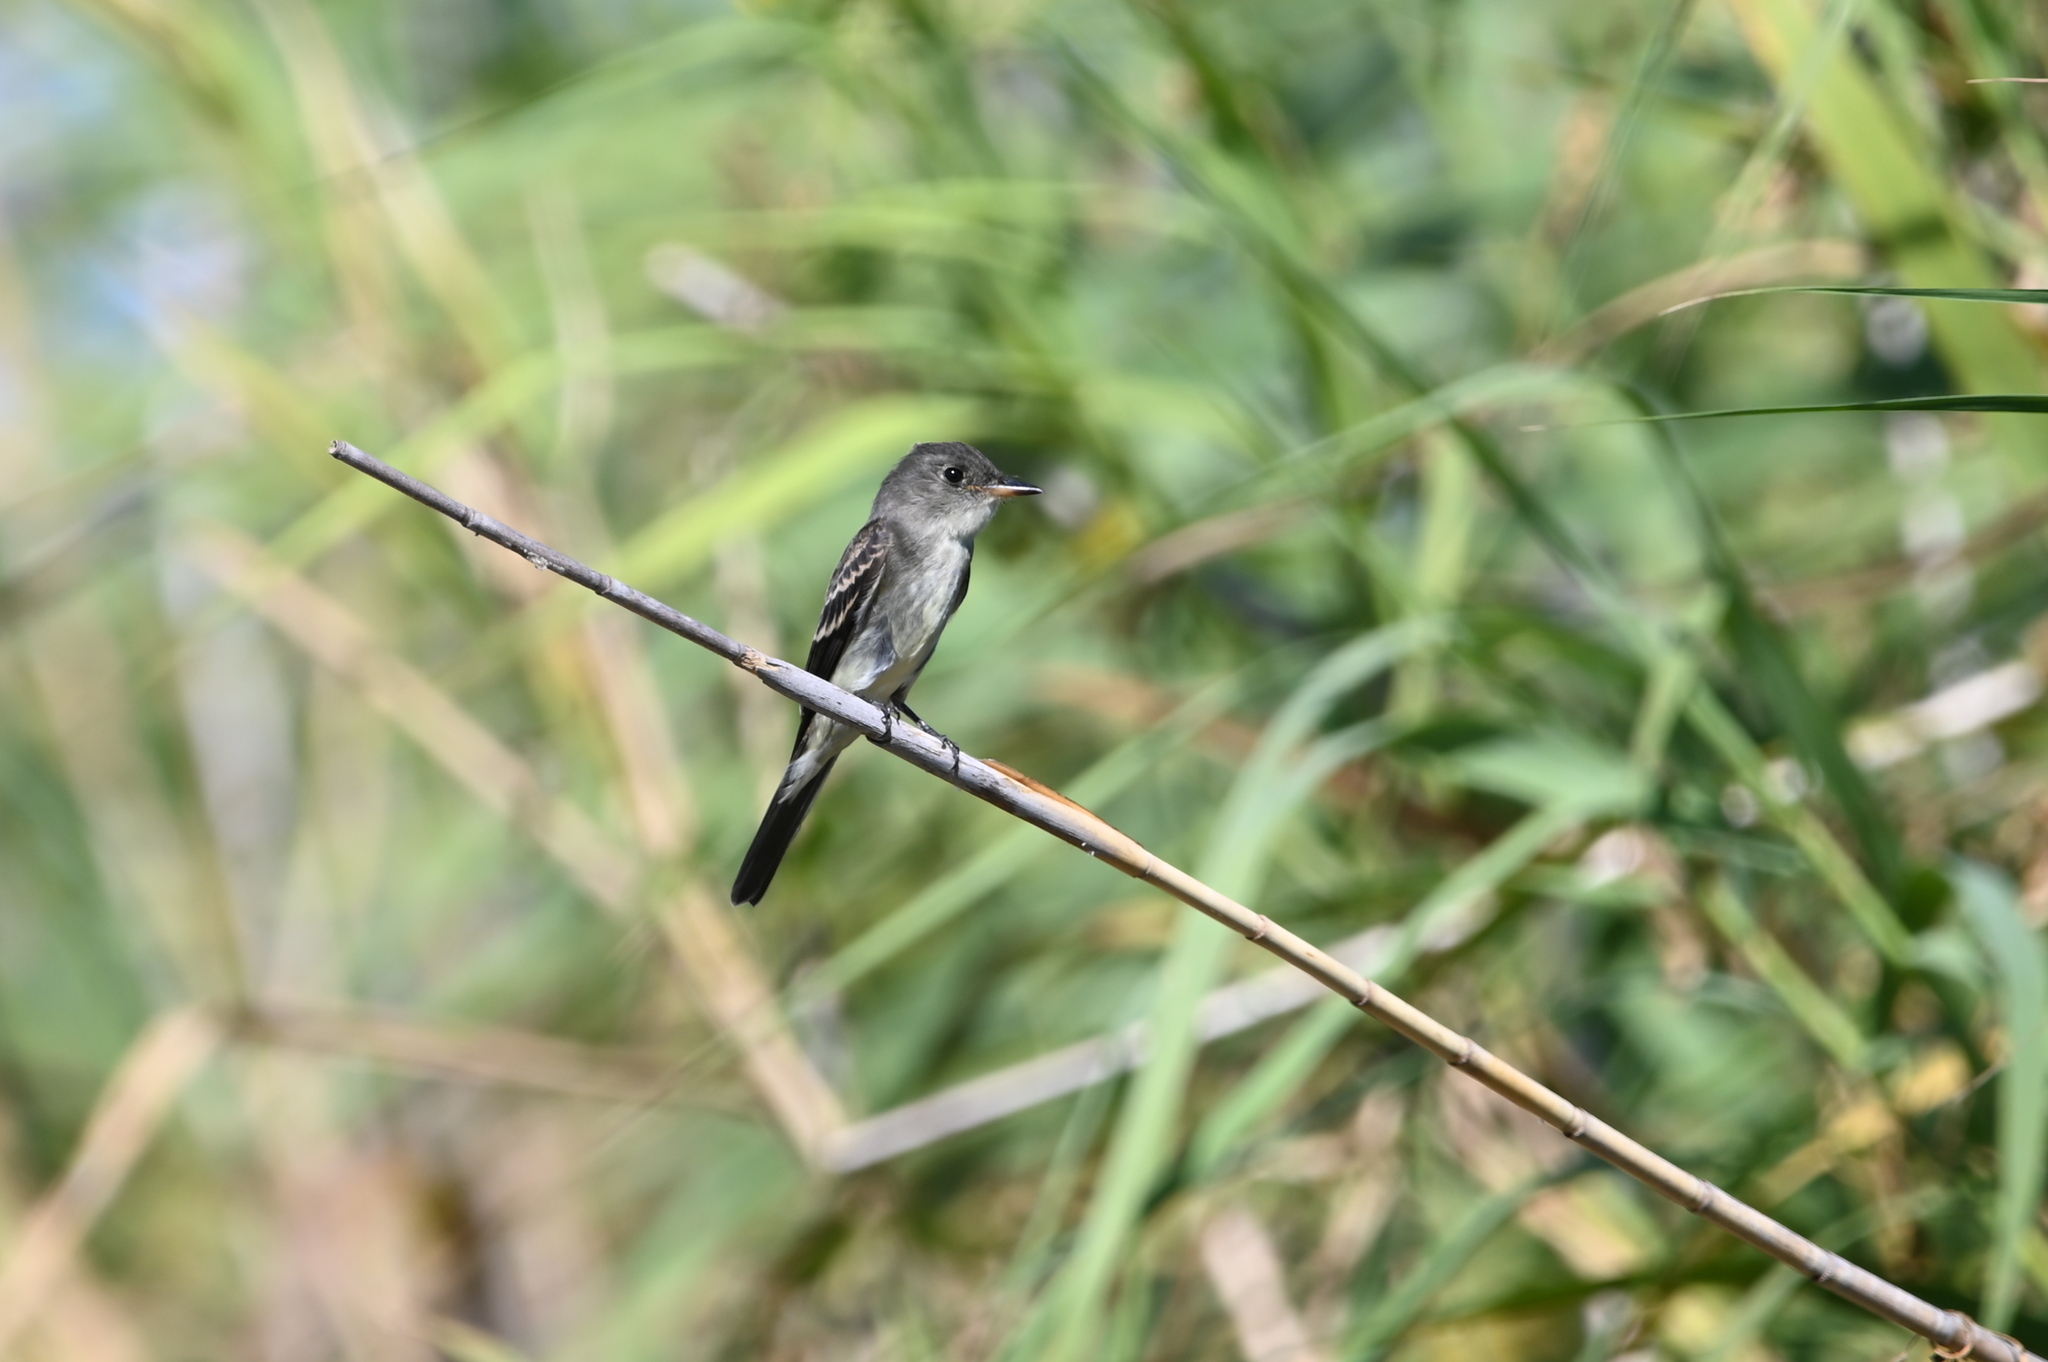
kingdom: Animalia
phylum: Chordata
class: Aves
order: Passeriformes
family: Tyrannidae
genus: Contopus
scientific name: Contopus virens
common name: Eastern wood-pewee
